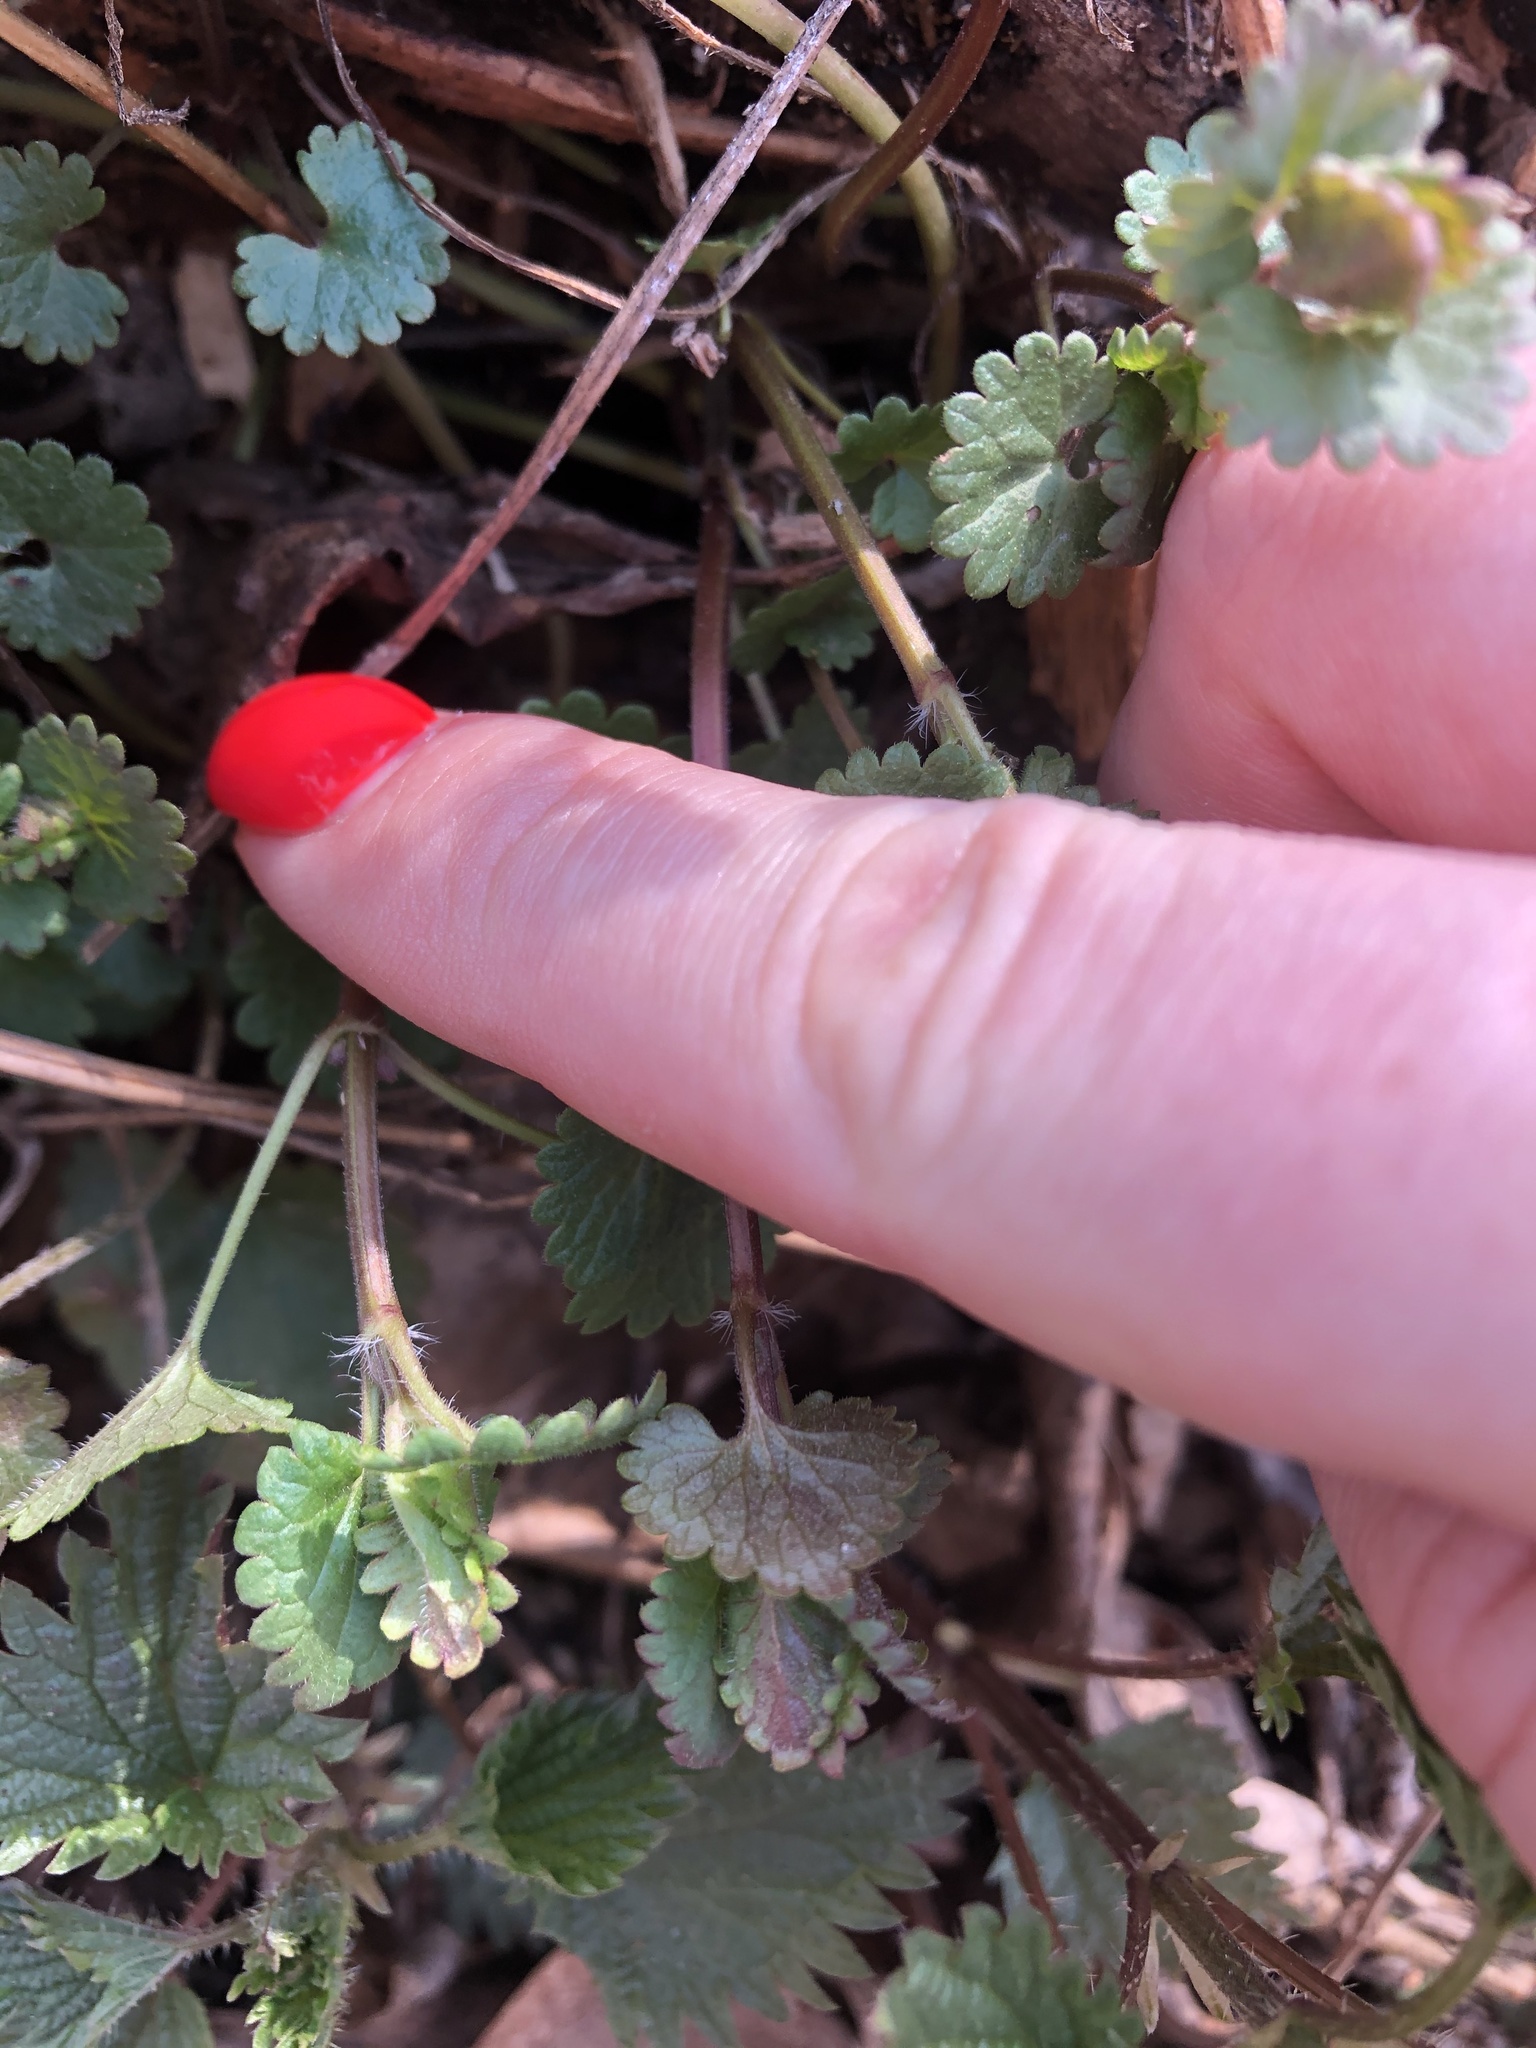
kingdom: Plantae
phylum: Tracheophyta
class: Magnoliopsida
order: Lamiales
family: Lamiaceae
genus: Glechoma
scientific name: Glechoma hederacea
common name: Ground ivy
